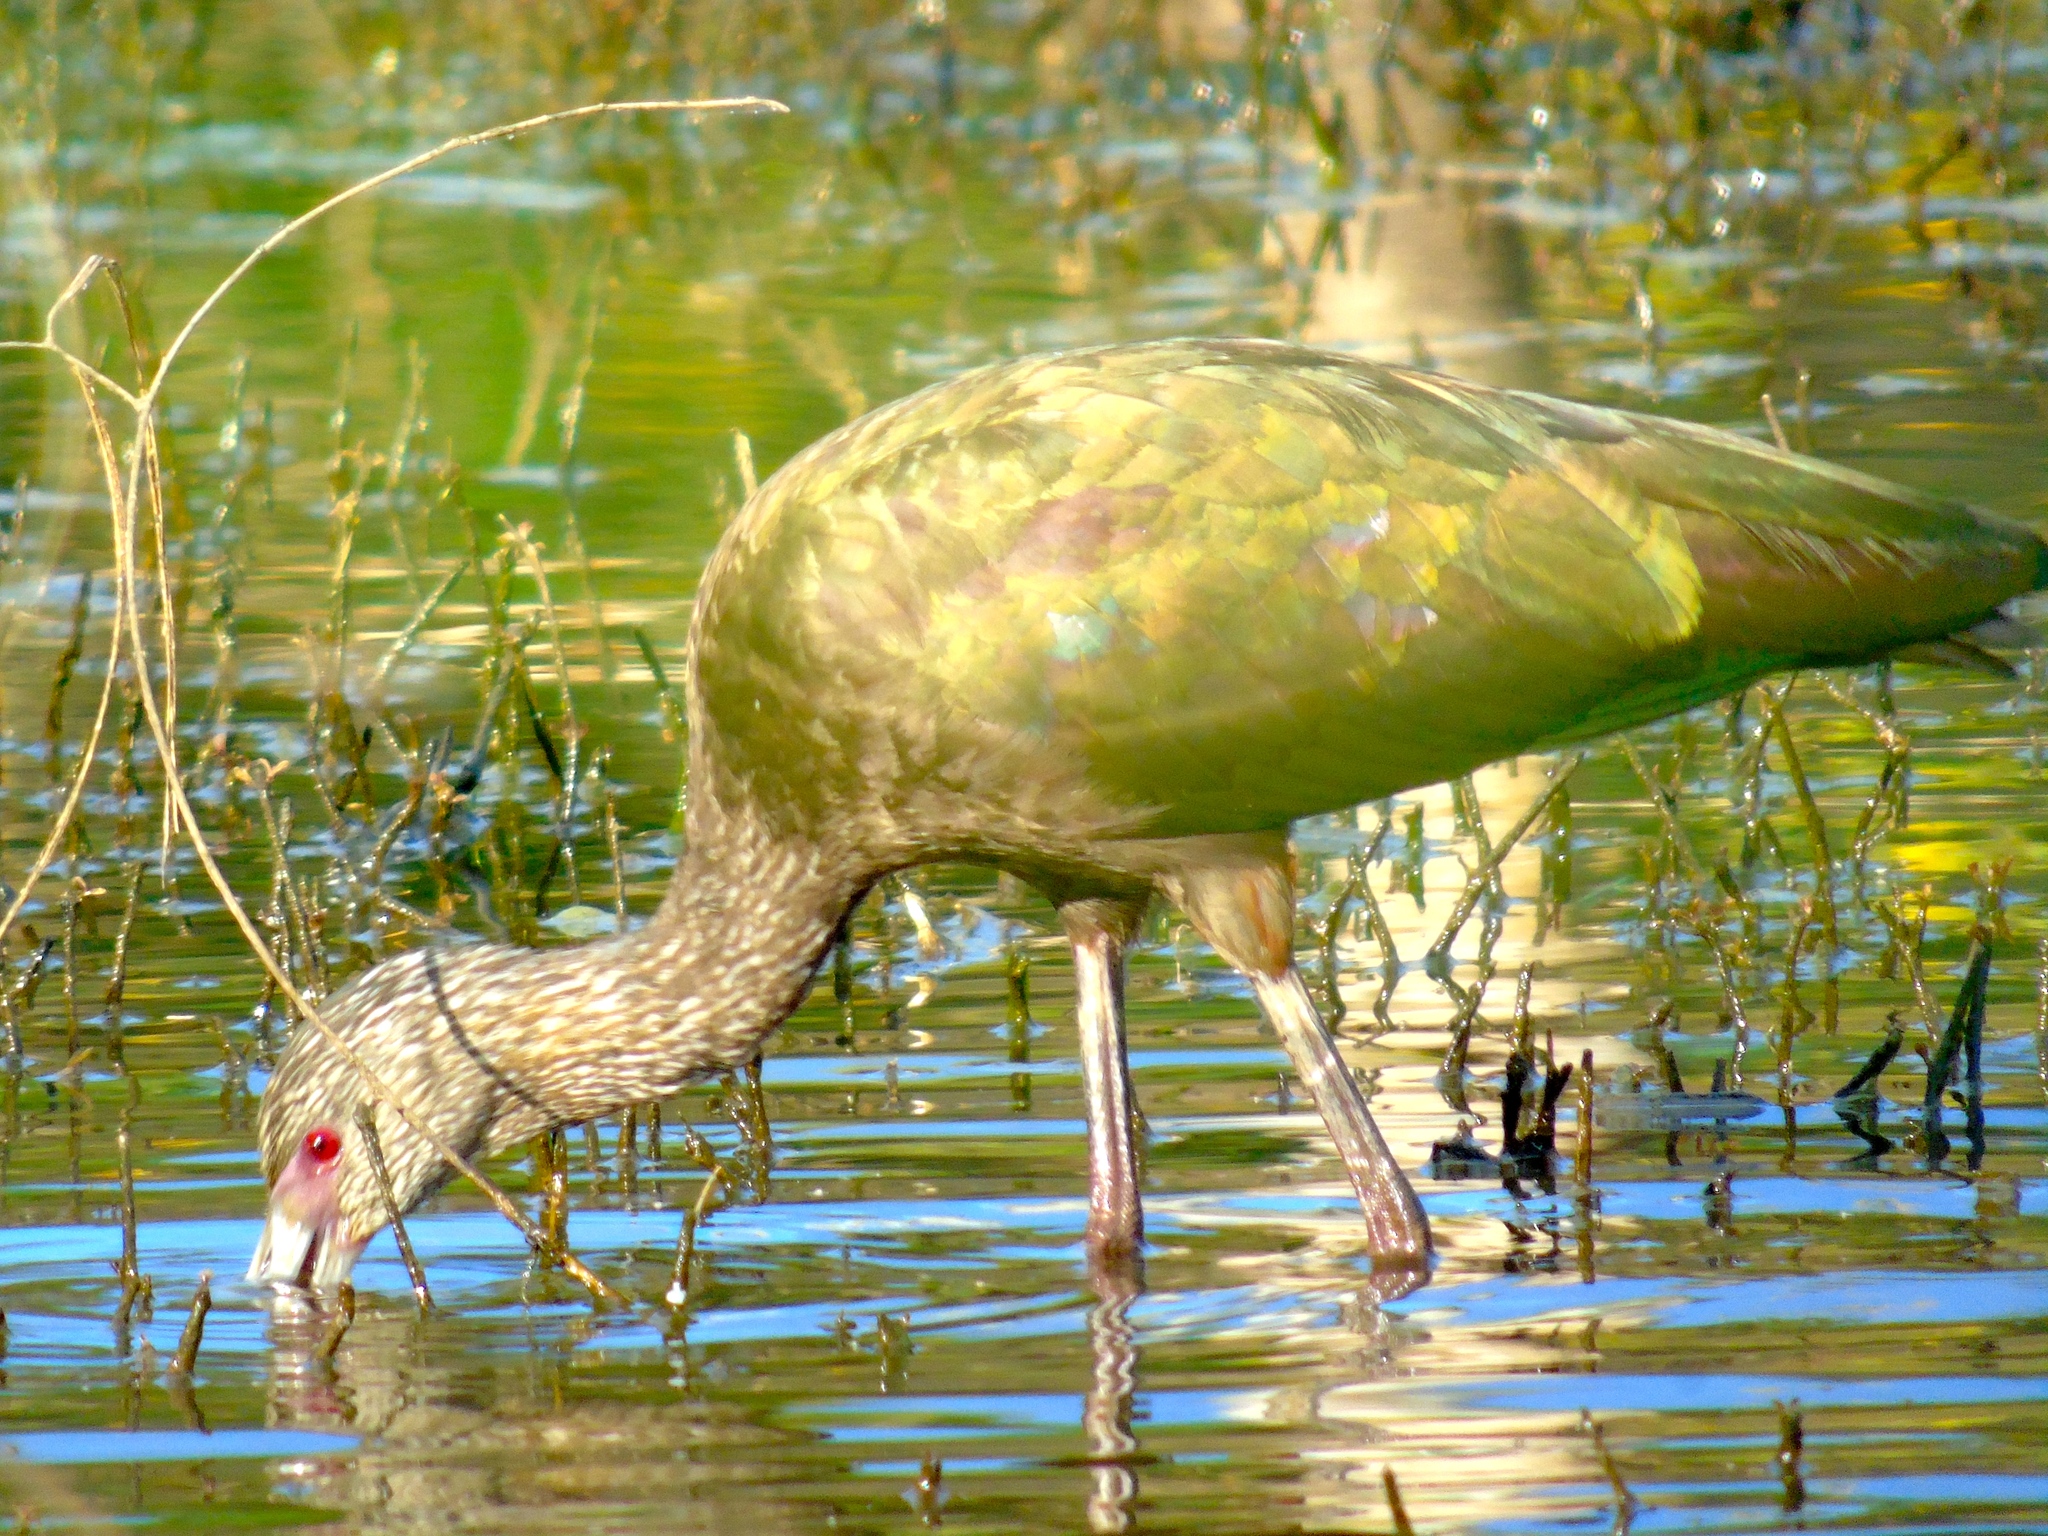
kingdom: Animalia
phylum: Chordata
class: Aves
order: Pelecaniformes
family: Threskiornithidae
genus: Plegadis
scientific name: Plegadis chihi
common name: White-faced ibis
